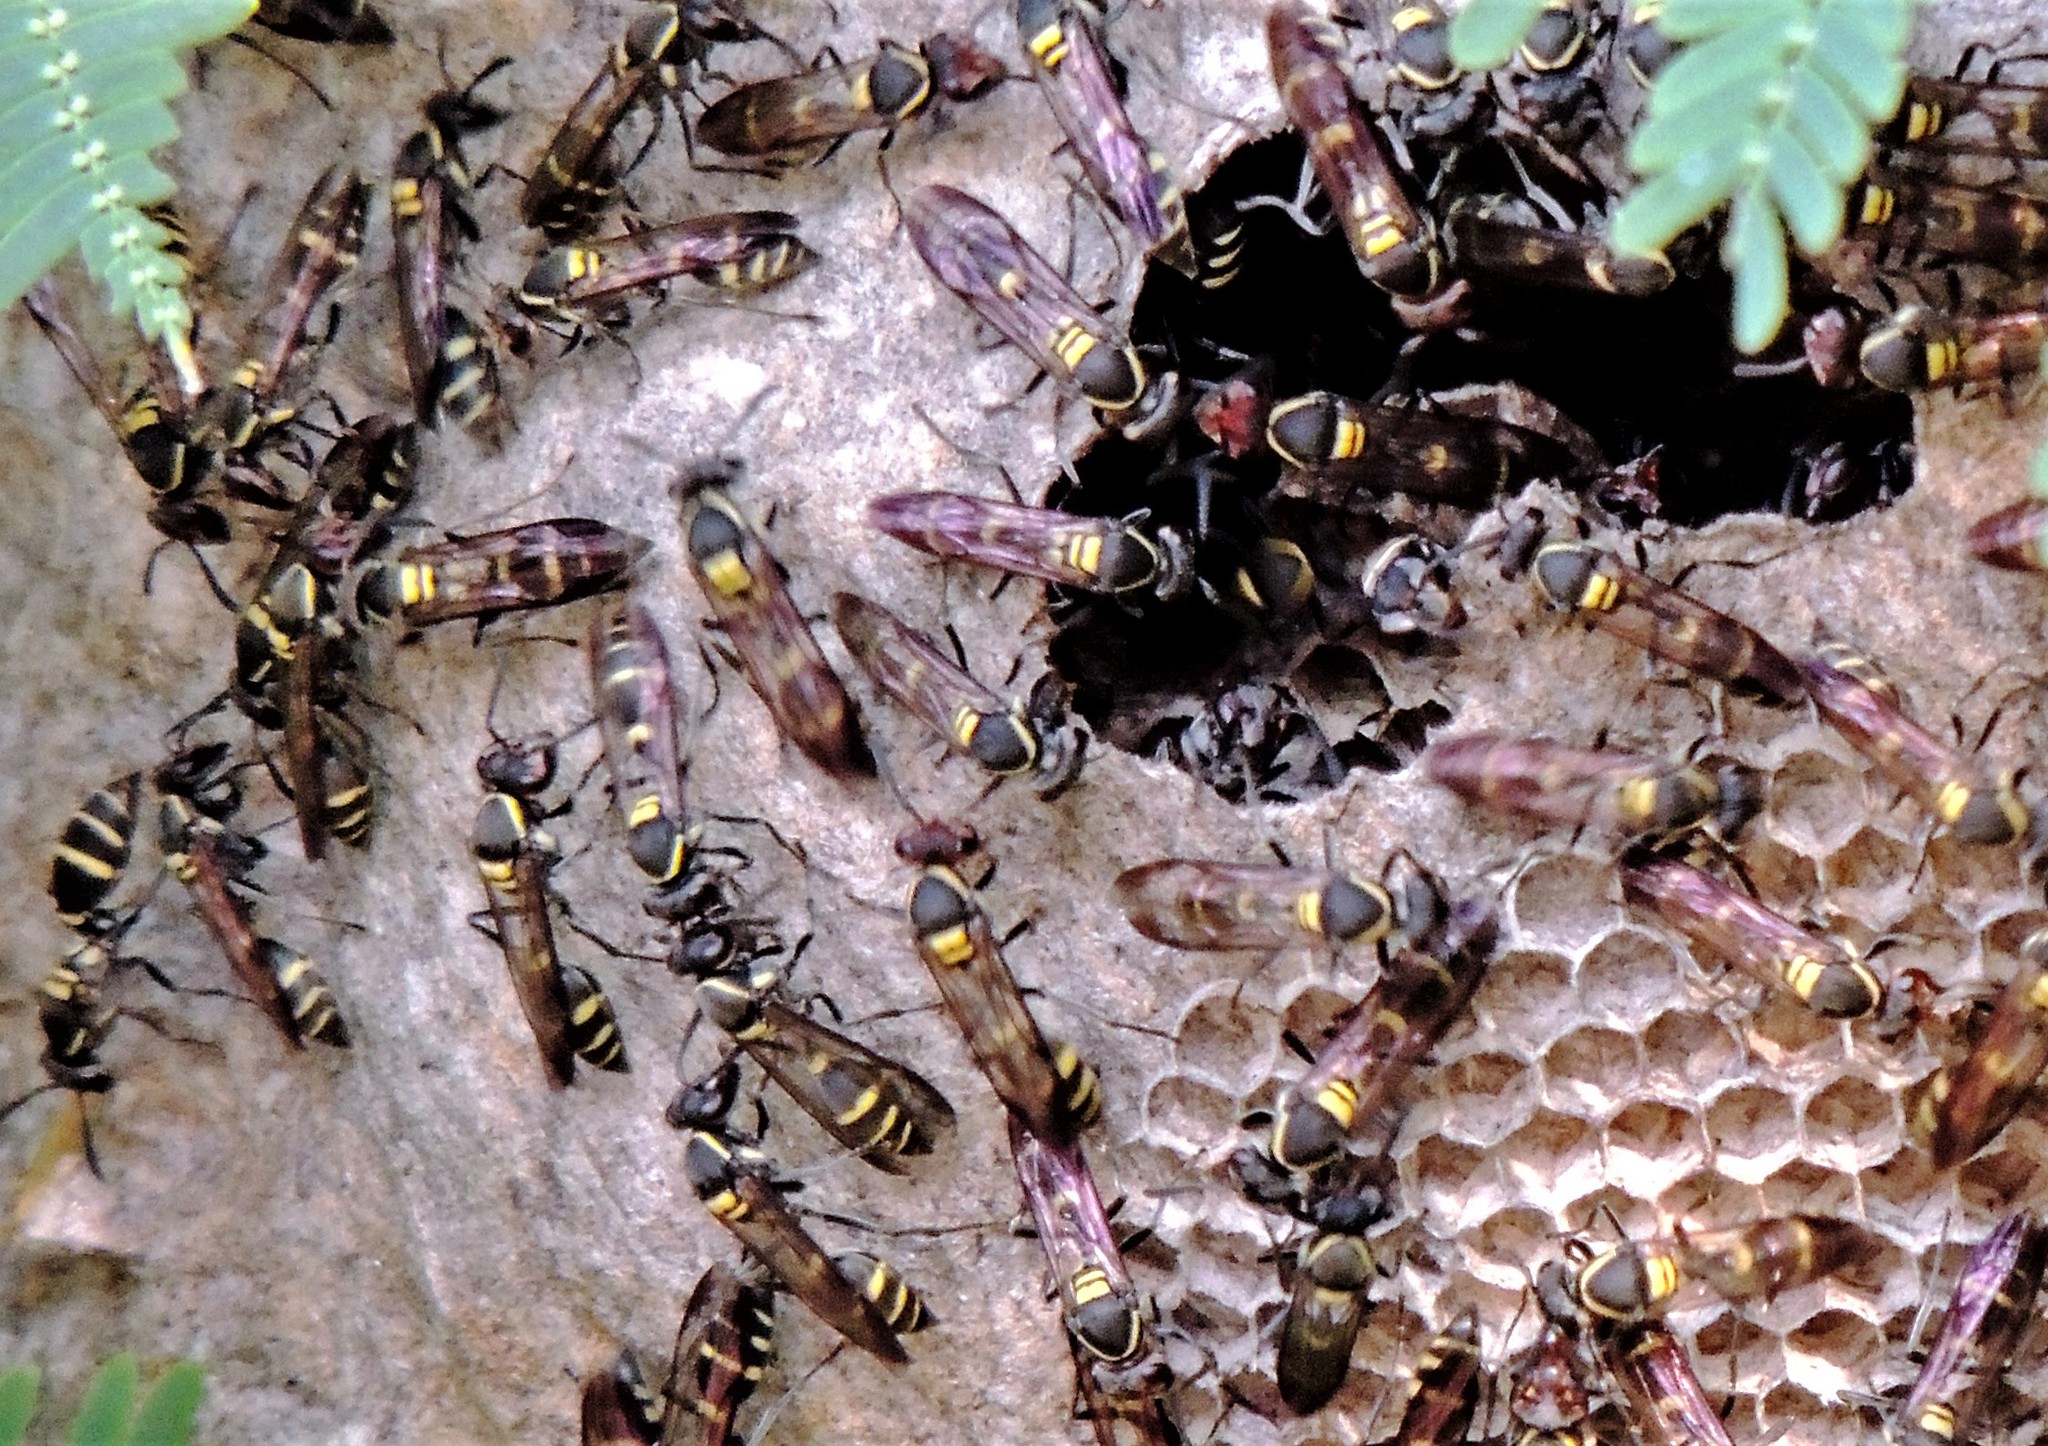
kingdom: Animalia
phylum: Arthropoda
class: Insecta
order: Hymenoptera
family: Eumenidae
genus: Polybia
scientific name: Polybia ruficeps
